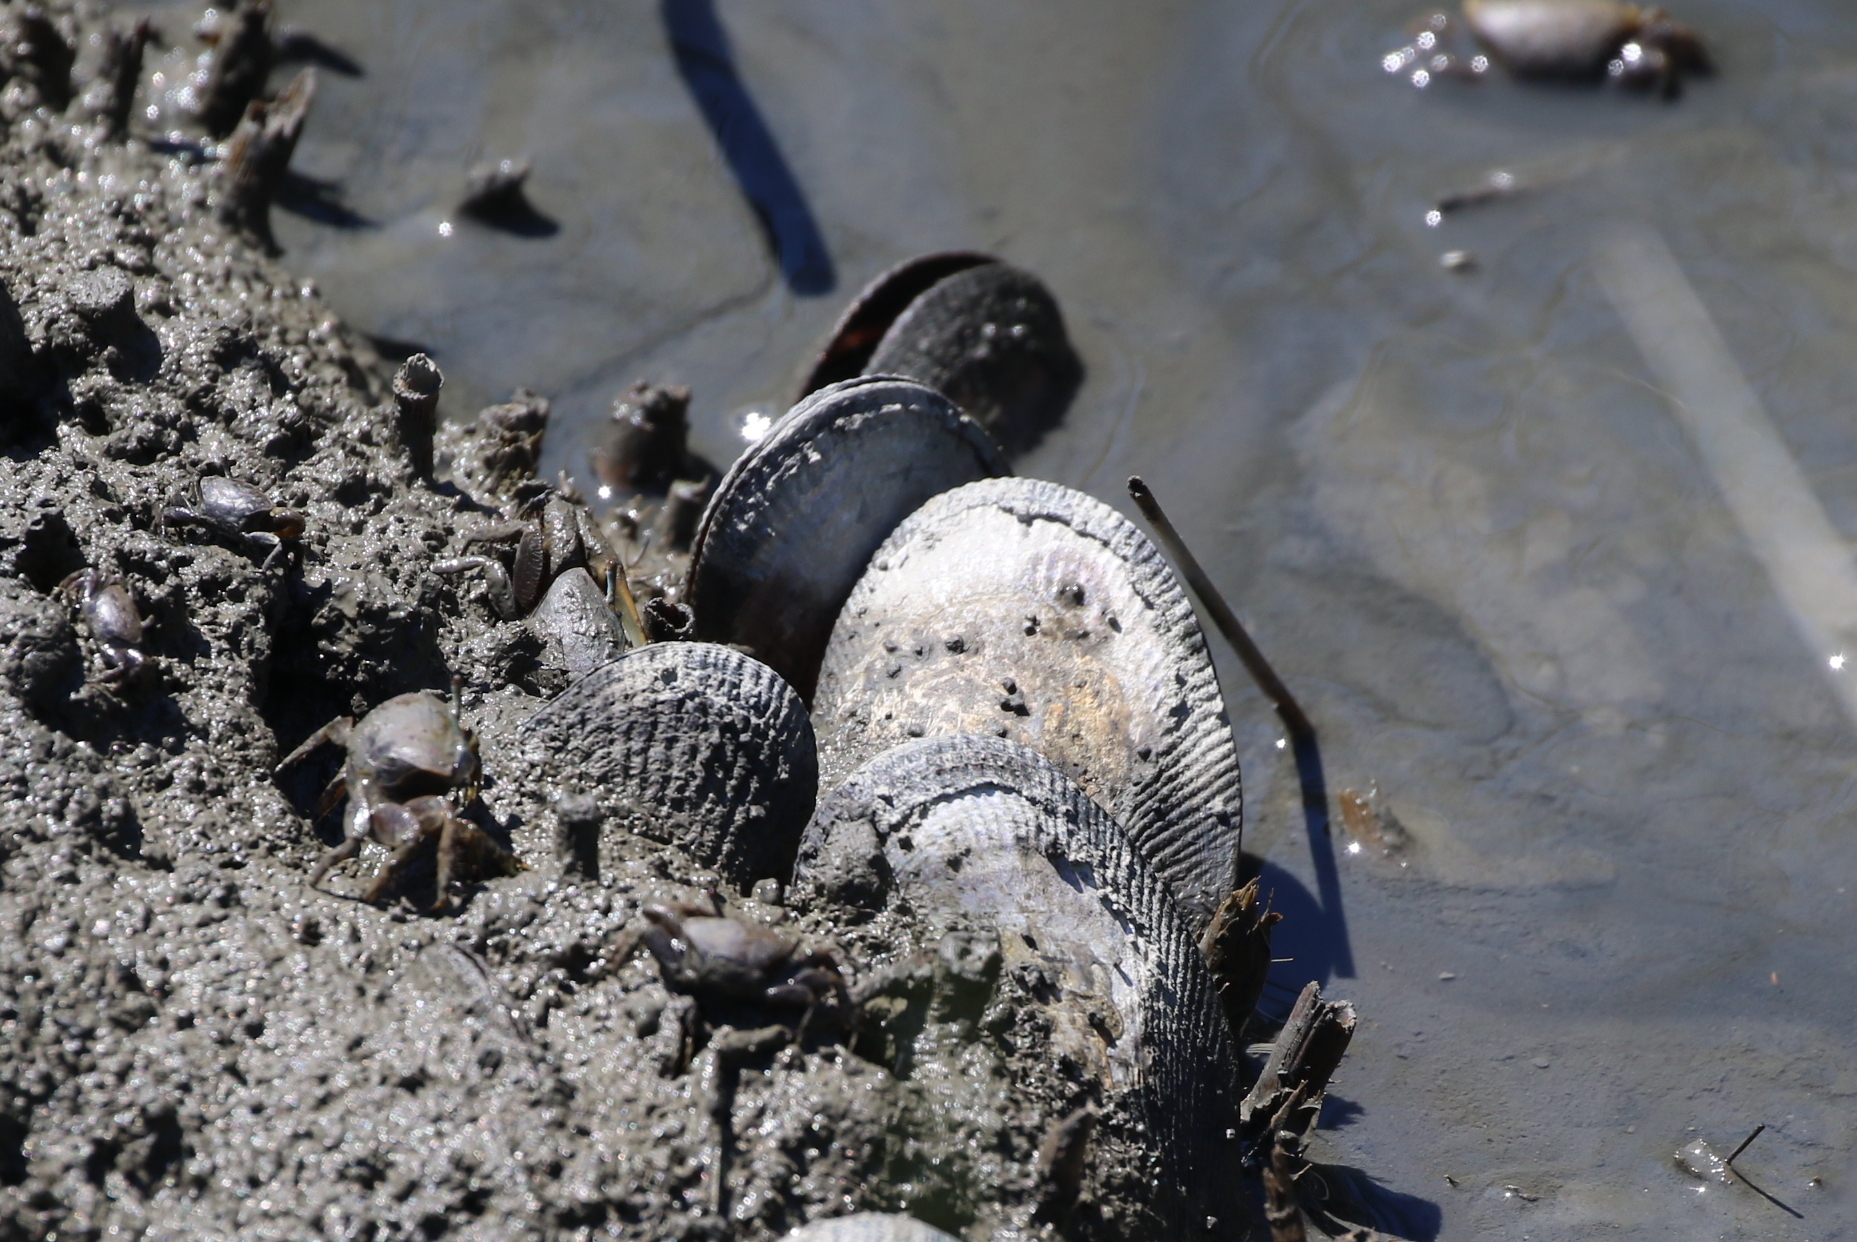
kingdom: Animalia
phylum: Mollusca
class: Bivalvia
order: Mytilida
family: Mytilidae
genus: Geukensia
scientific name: Geukensia demissa
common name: Ribbed mussel
